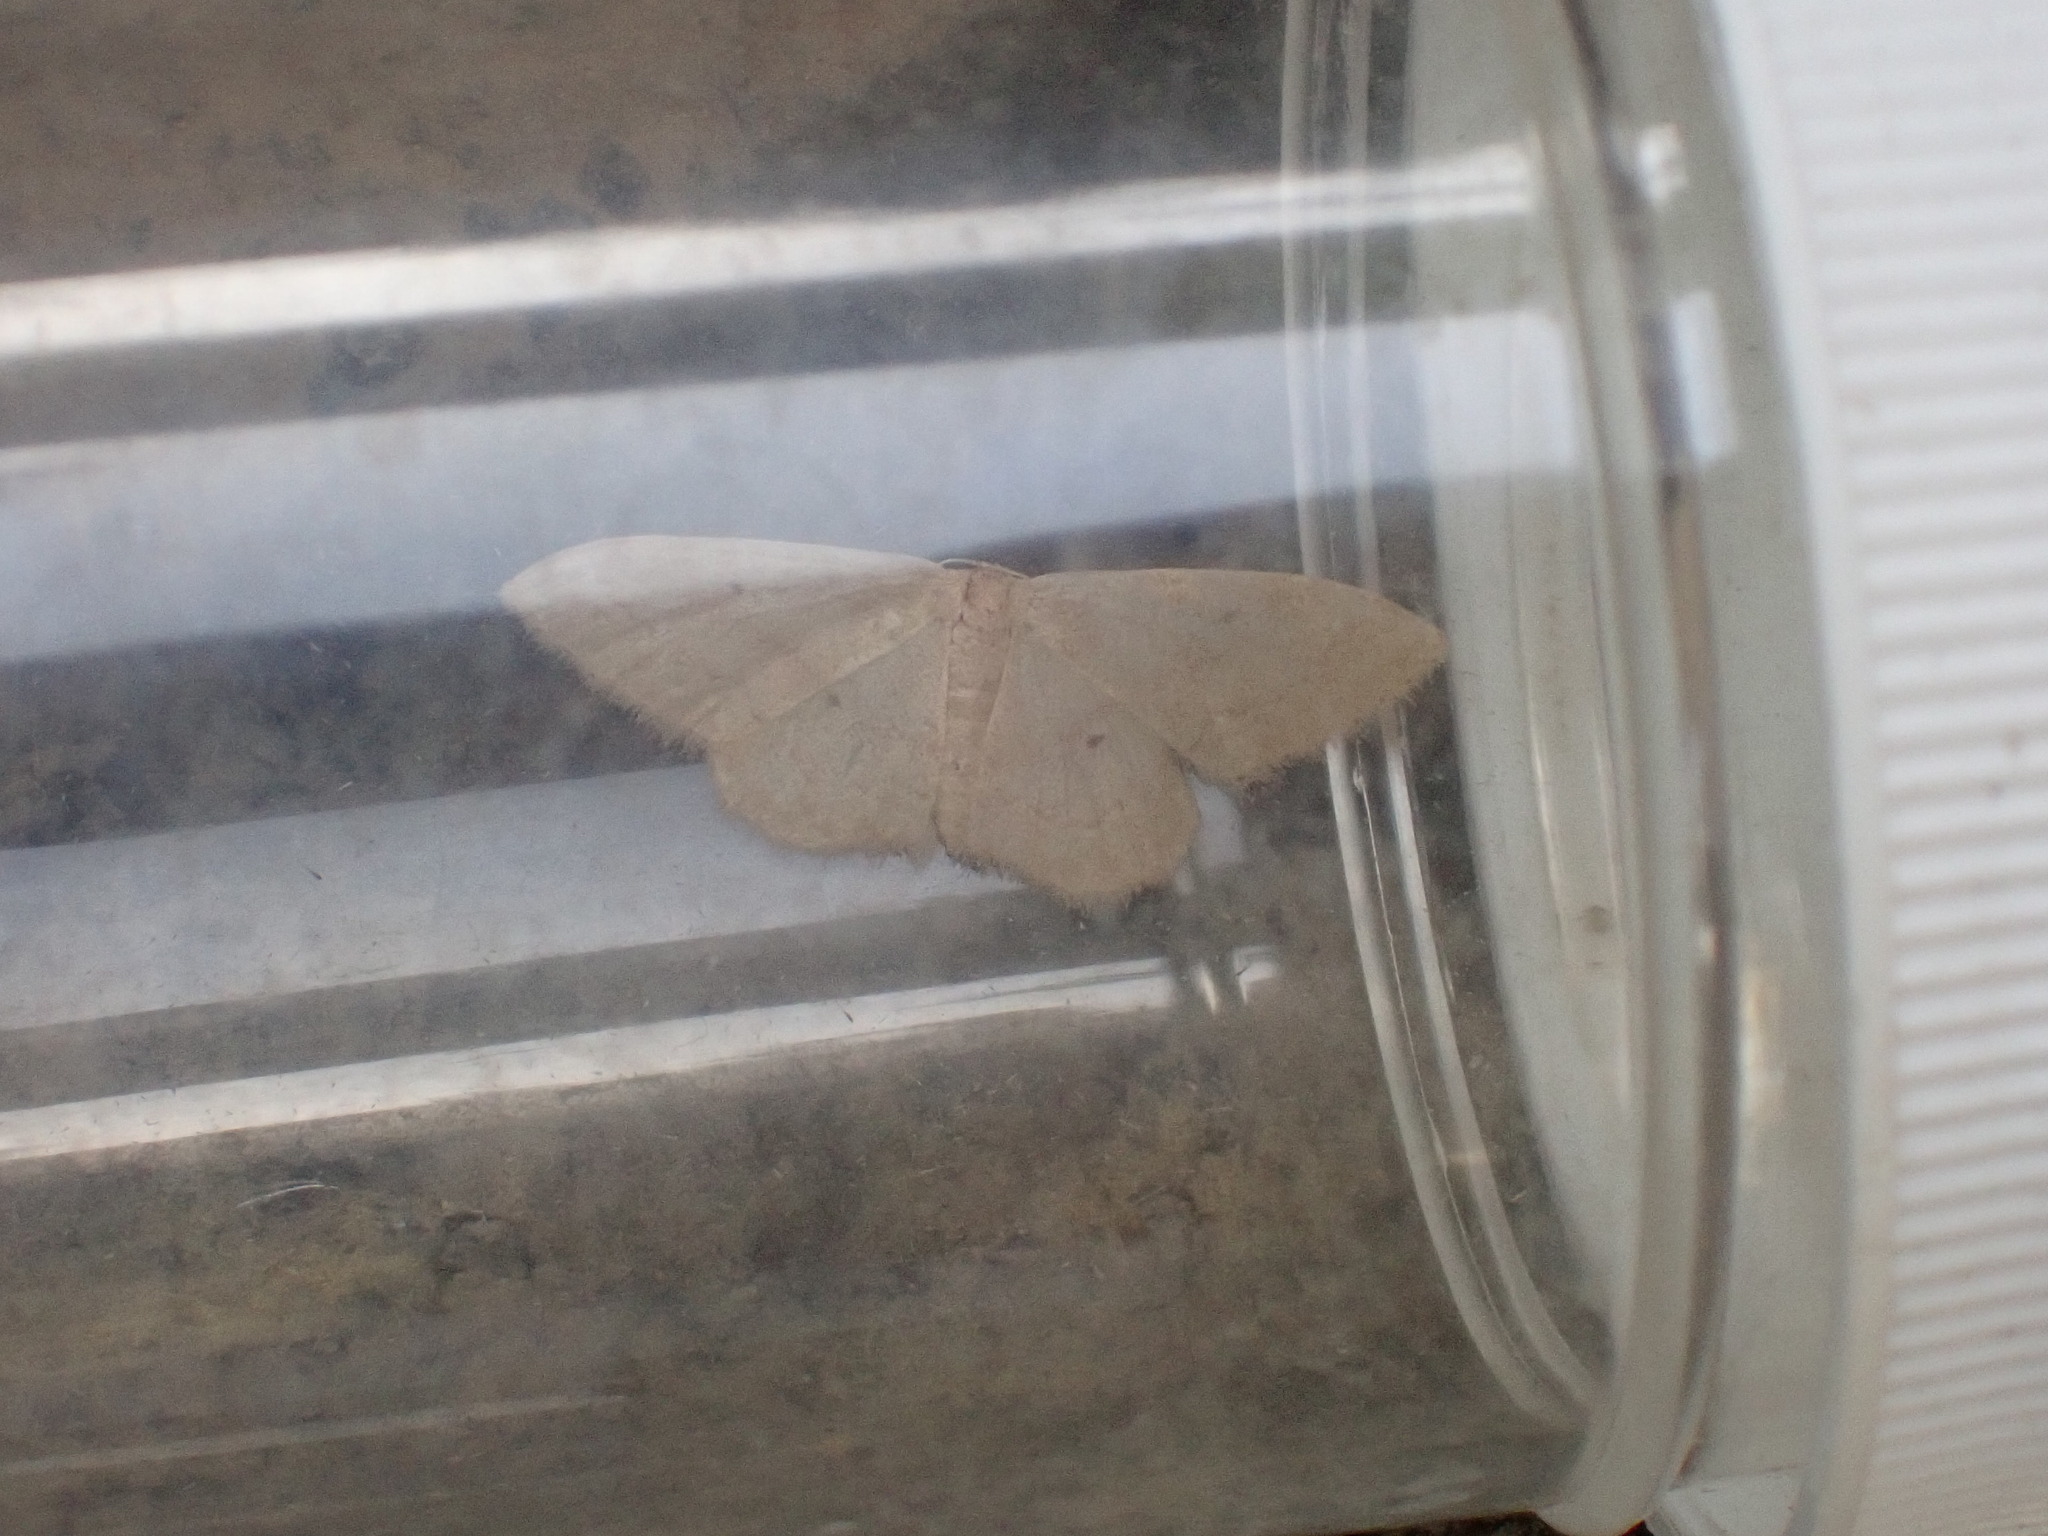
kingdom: Animalia
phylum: Arthropoda
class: Insecta
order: Lepidoptera
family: Geometridae
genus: Idaea
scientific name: Idaea neglecta
